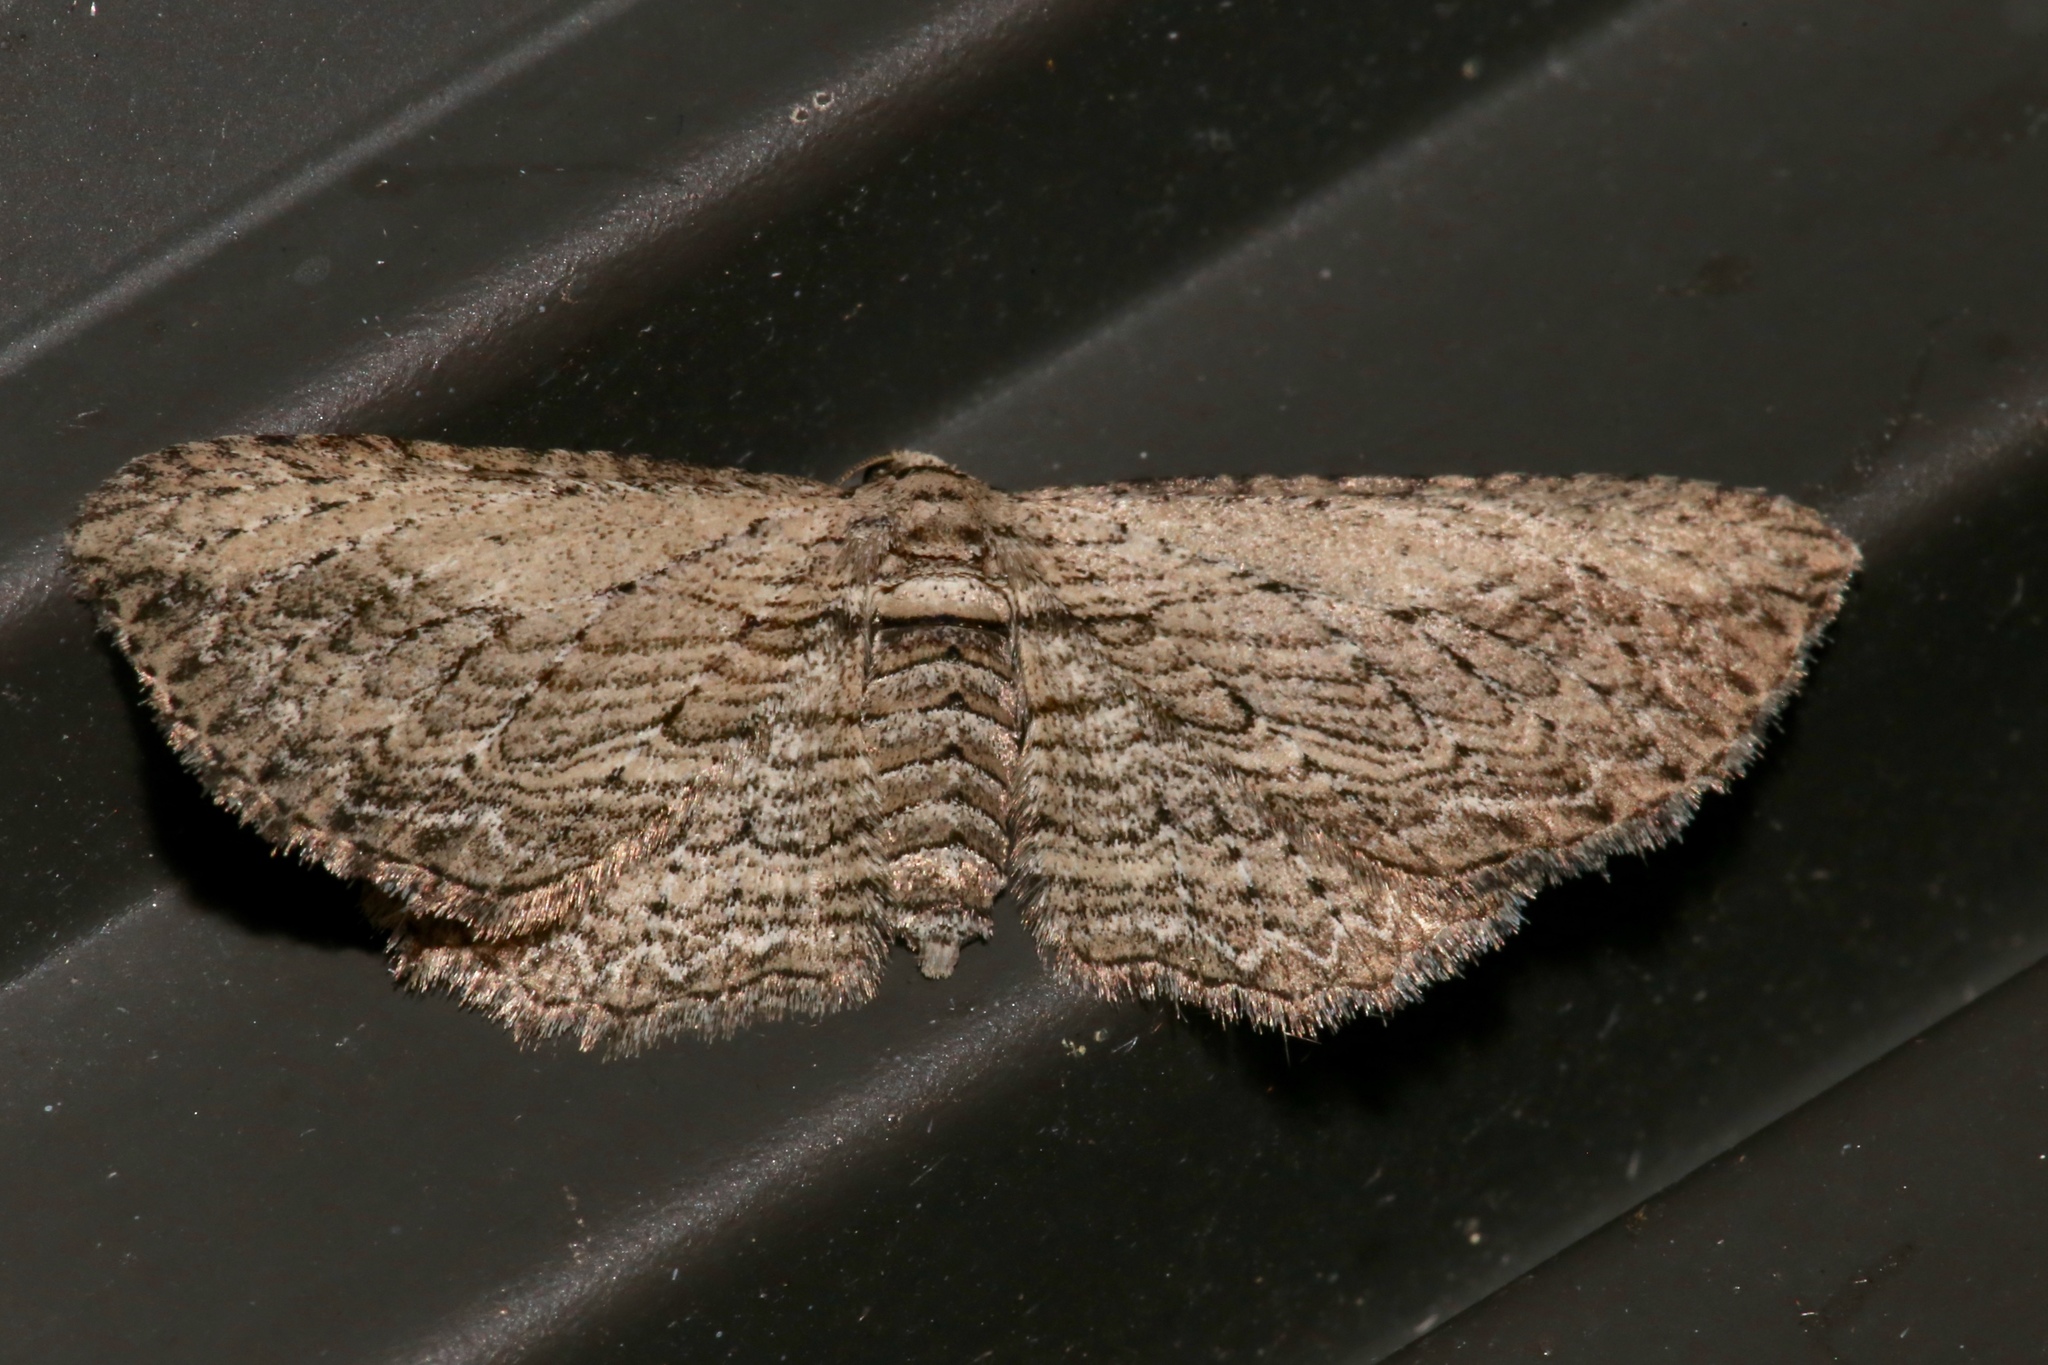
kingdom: Animalia
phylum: Arthropoda
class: Insecta
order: Lepidoptera
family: Geometridae
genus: Horisme
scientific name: Horisme intestinata
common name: Brown bark carpet
